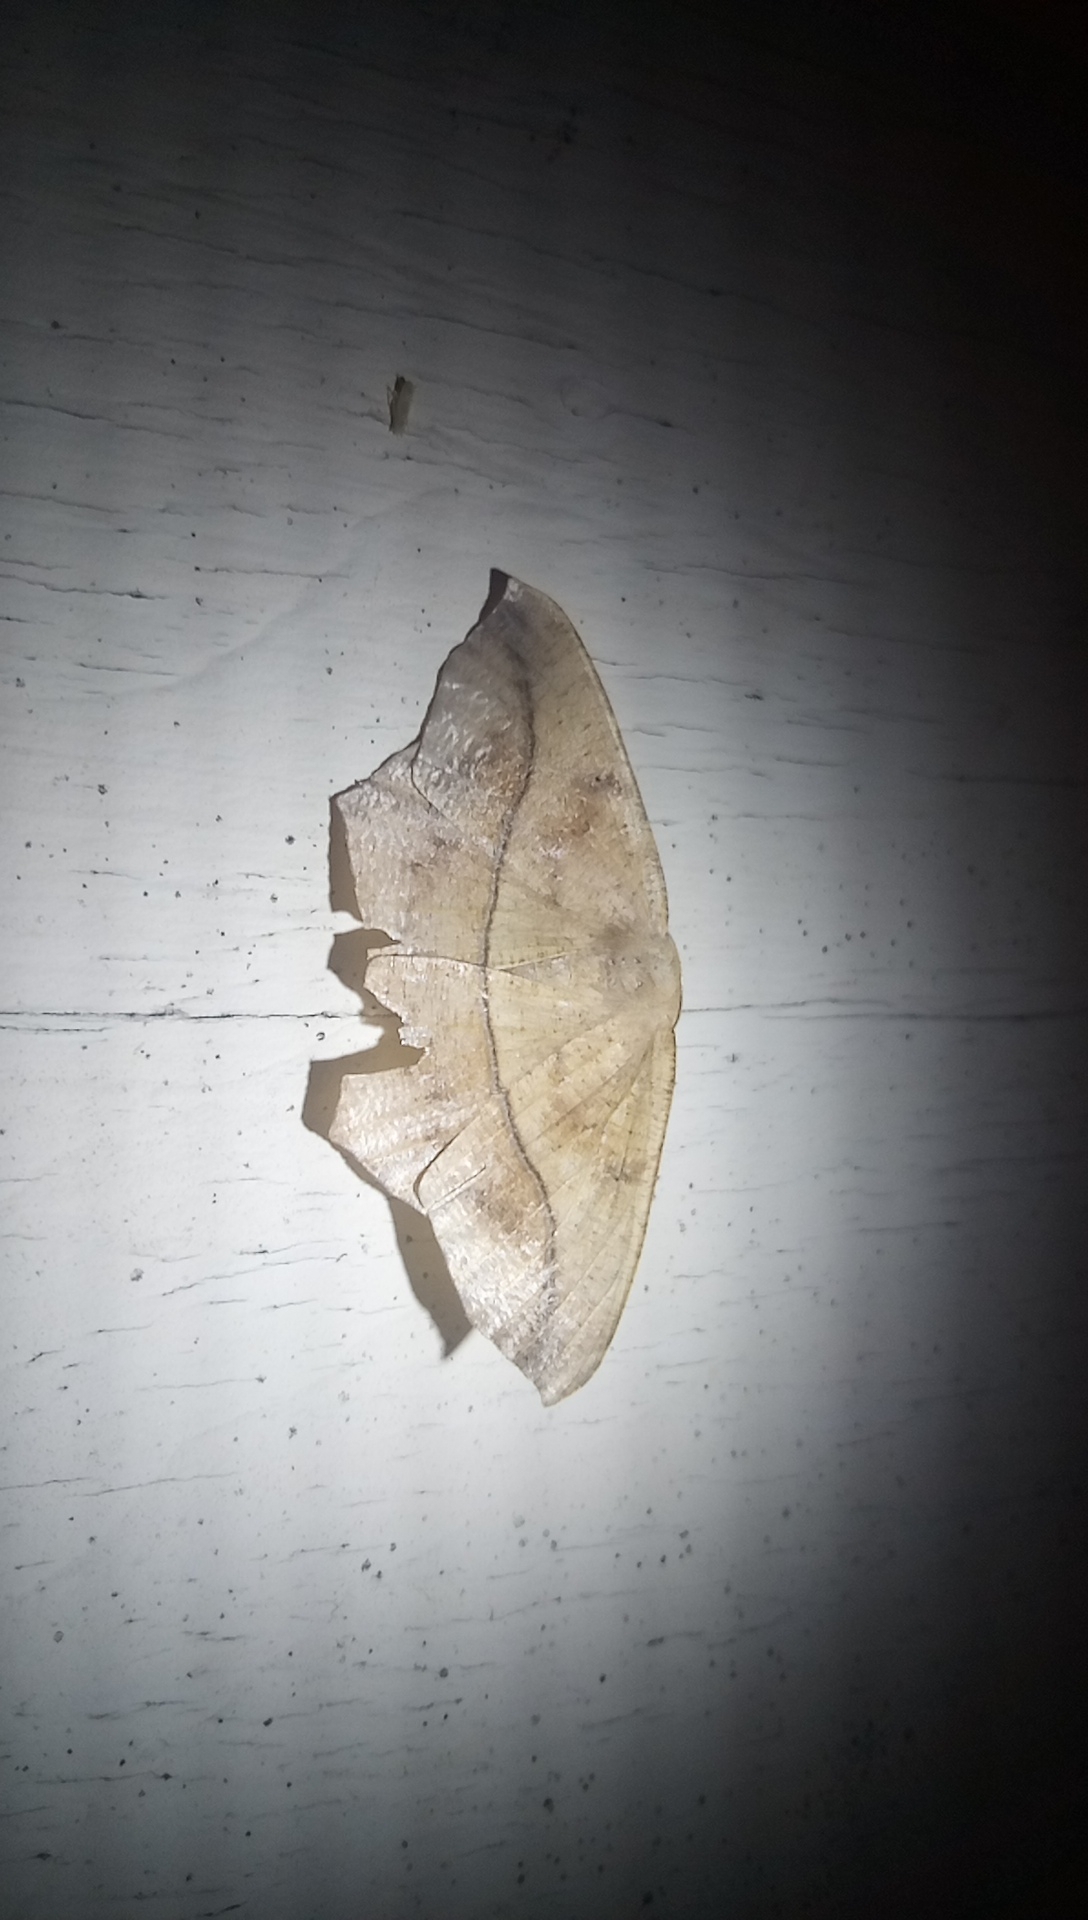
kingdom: Animalia
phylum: Arthropoda
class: Insecta
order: Lepidoptera
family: Geometridae
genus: Prochoerodes
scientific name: Prochoerodes lineola
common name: Large maple spanworm
